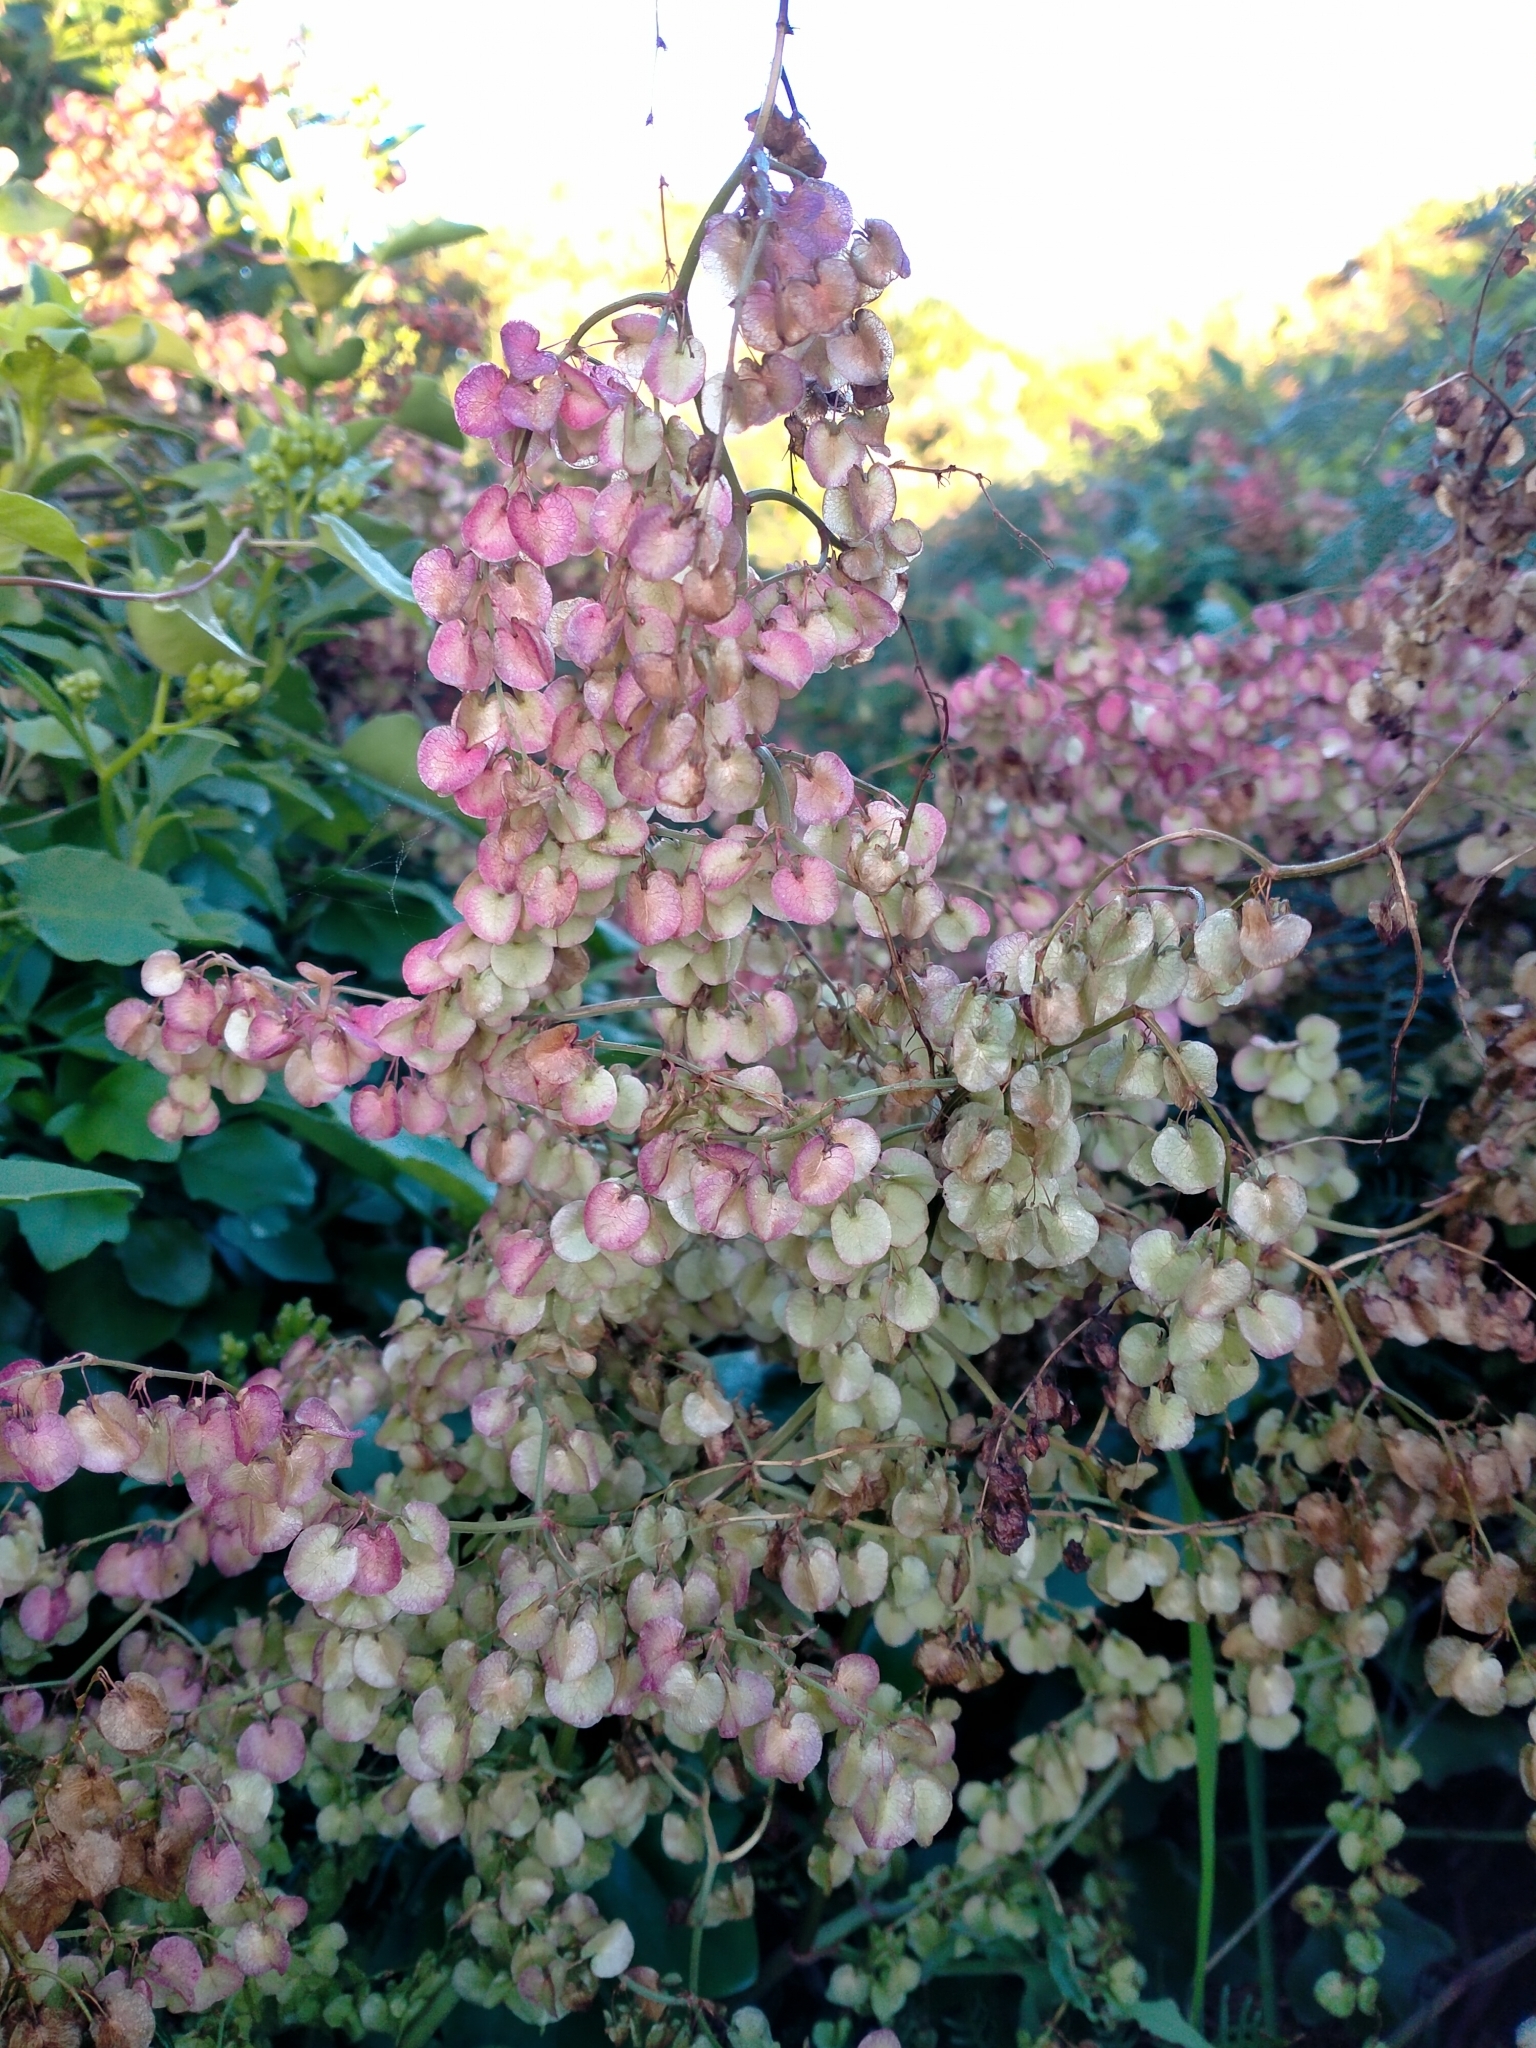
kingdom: Plantae
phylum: Tracheophyta
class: Magnoliopsida
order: Caryophyllales
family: Polygonaceae
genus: Rumex
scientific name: Rumex sagittatus
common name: Climbing dock
